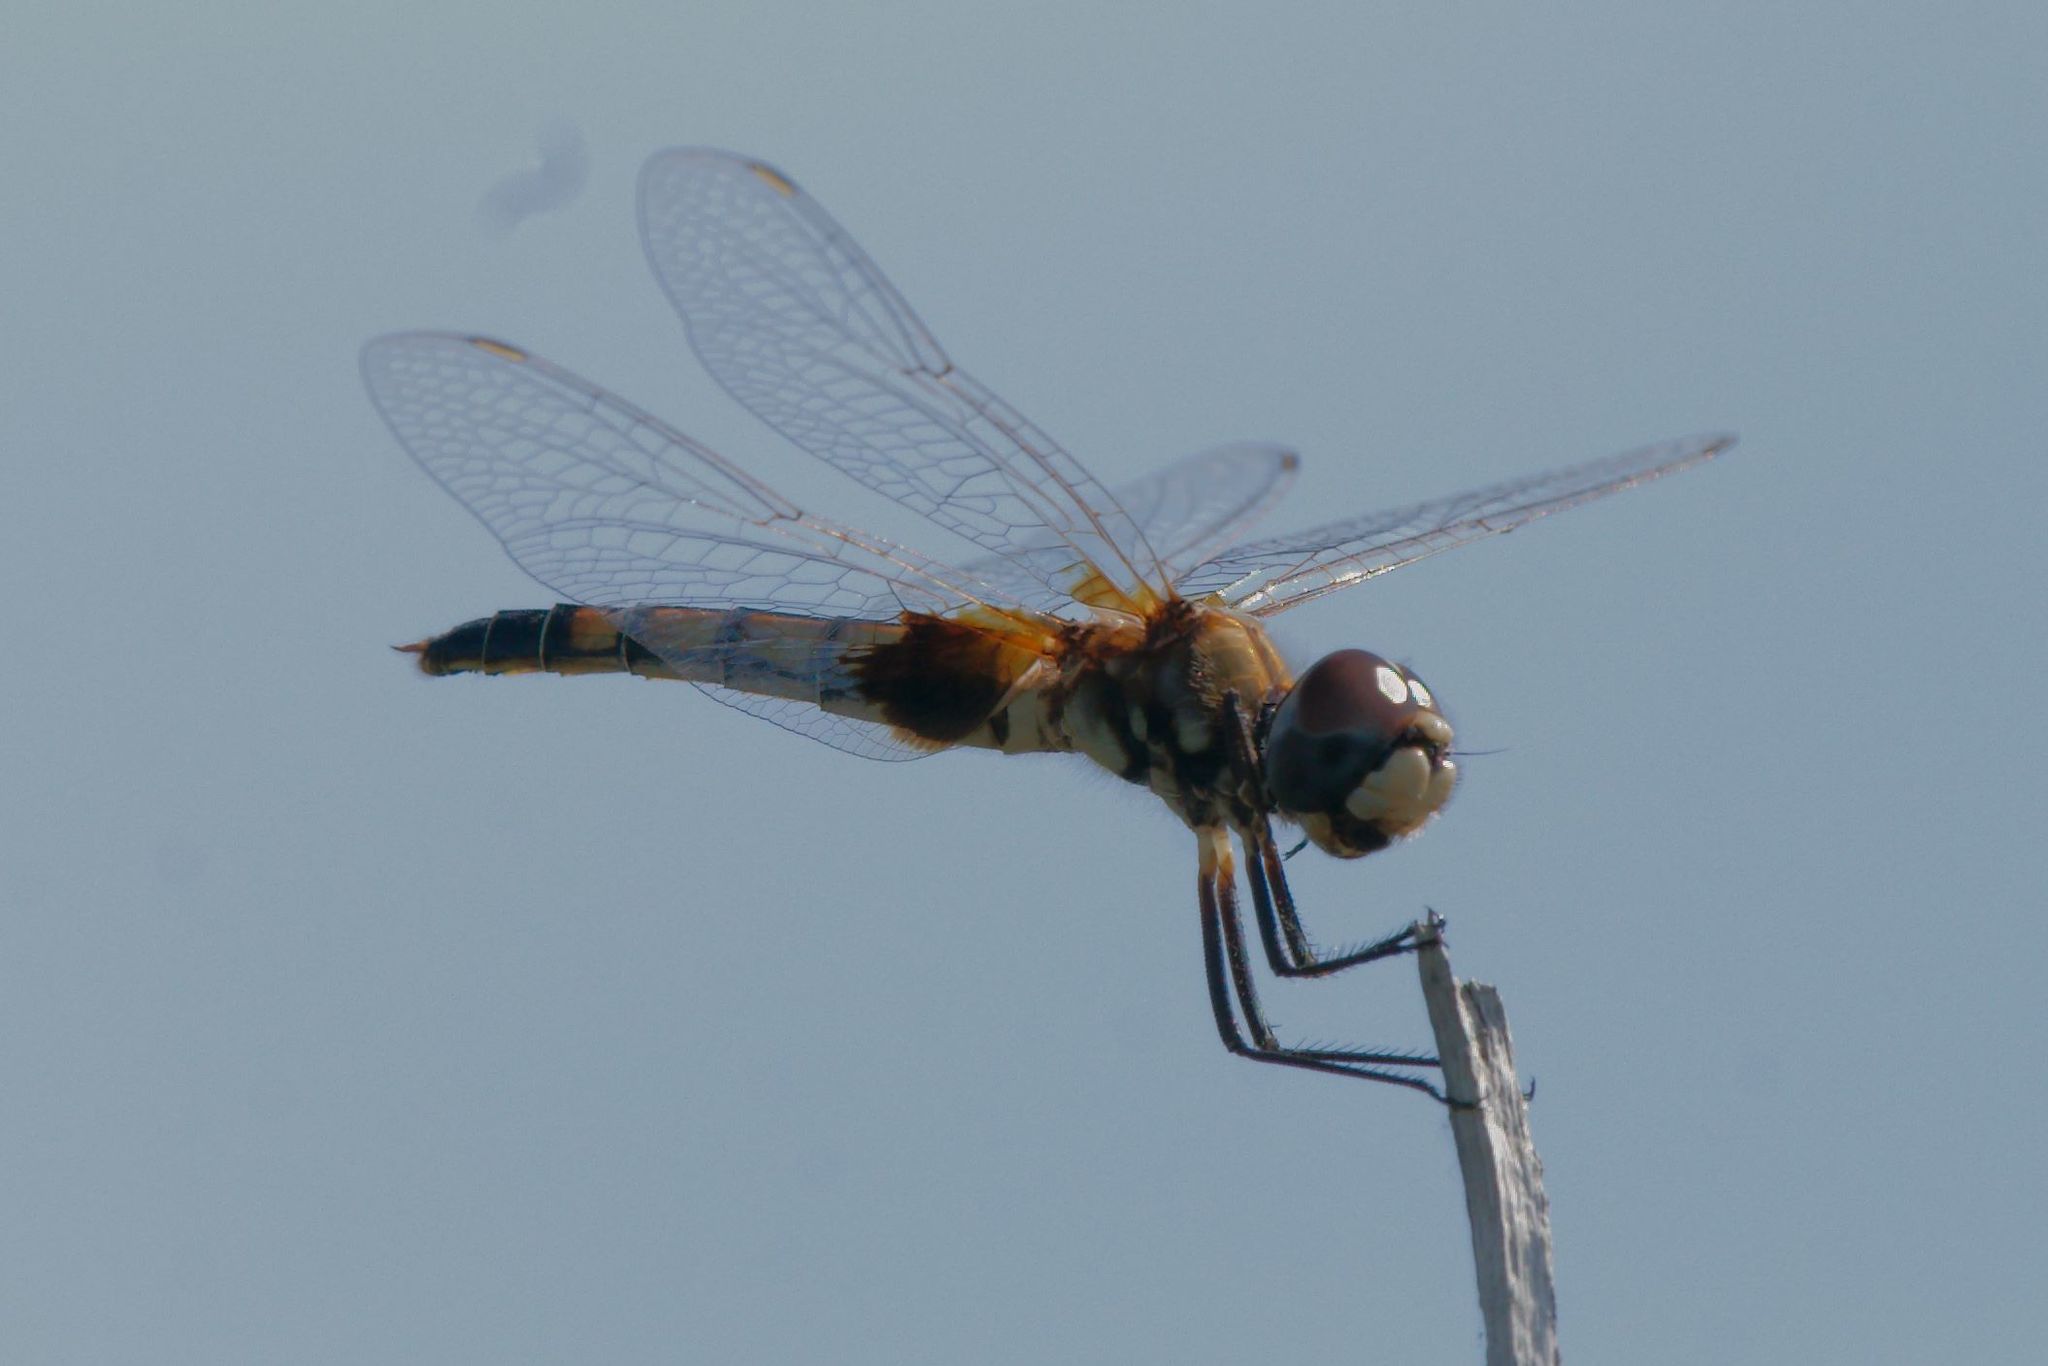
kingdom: Animalia
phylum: Arthropoda
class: Insecta
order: Odonata
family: Libellulidae
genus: Macrodiplax
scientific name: Macrodiplax balteata
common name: Marl pennant
